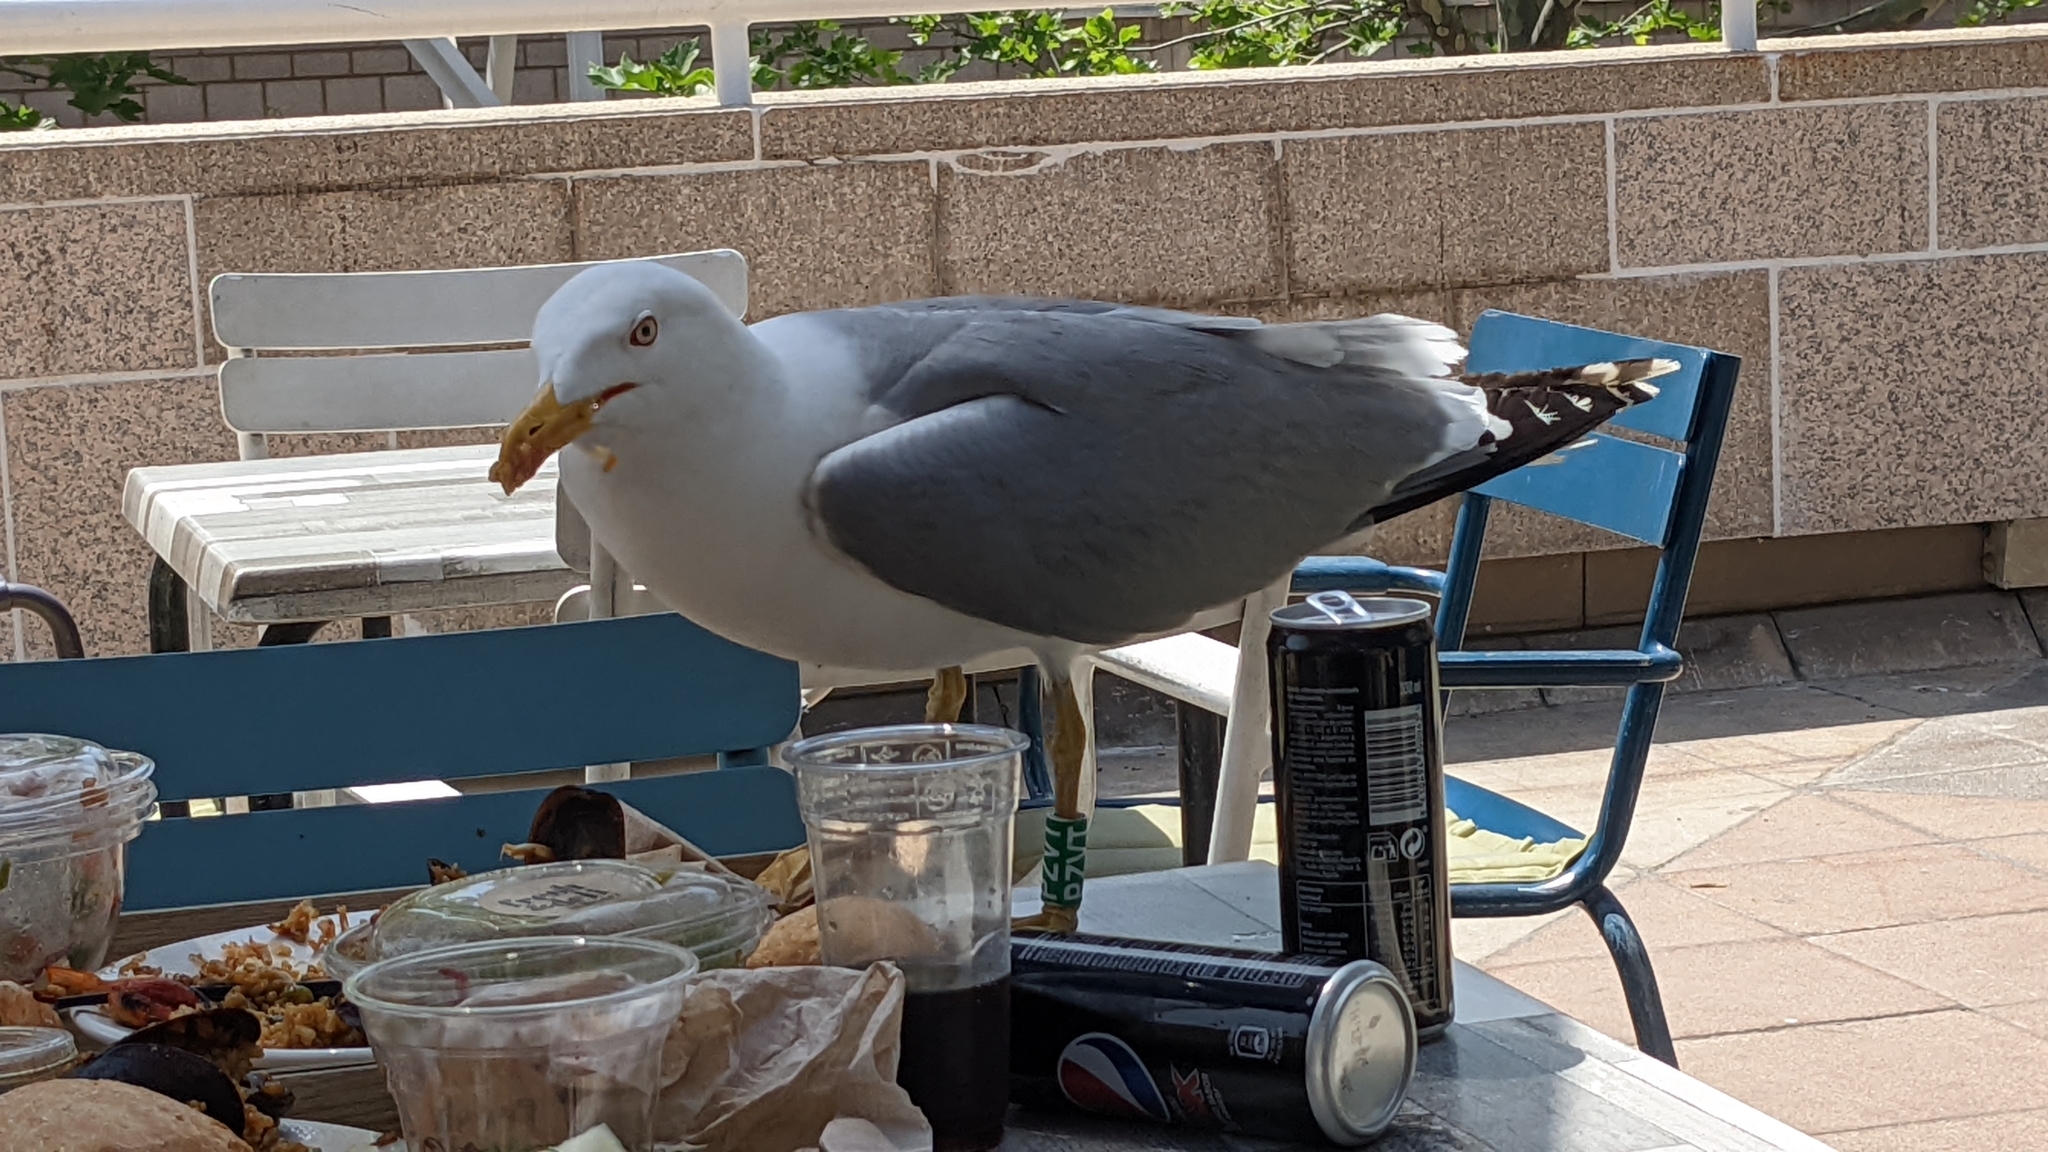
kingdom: Animalia
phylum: Chordata
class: Aves
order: Charadriiformes
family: Laridae
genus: Larus
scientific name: Larus michahellis
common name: Yellow-legged gull
